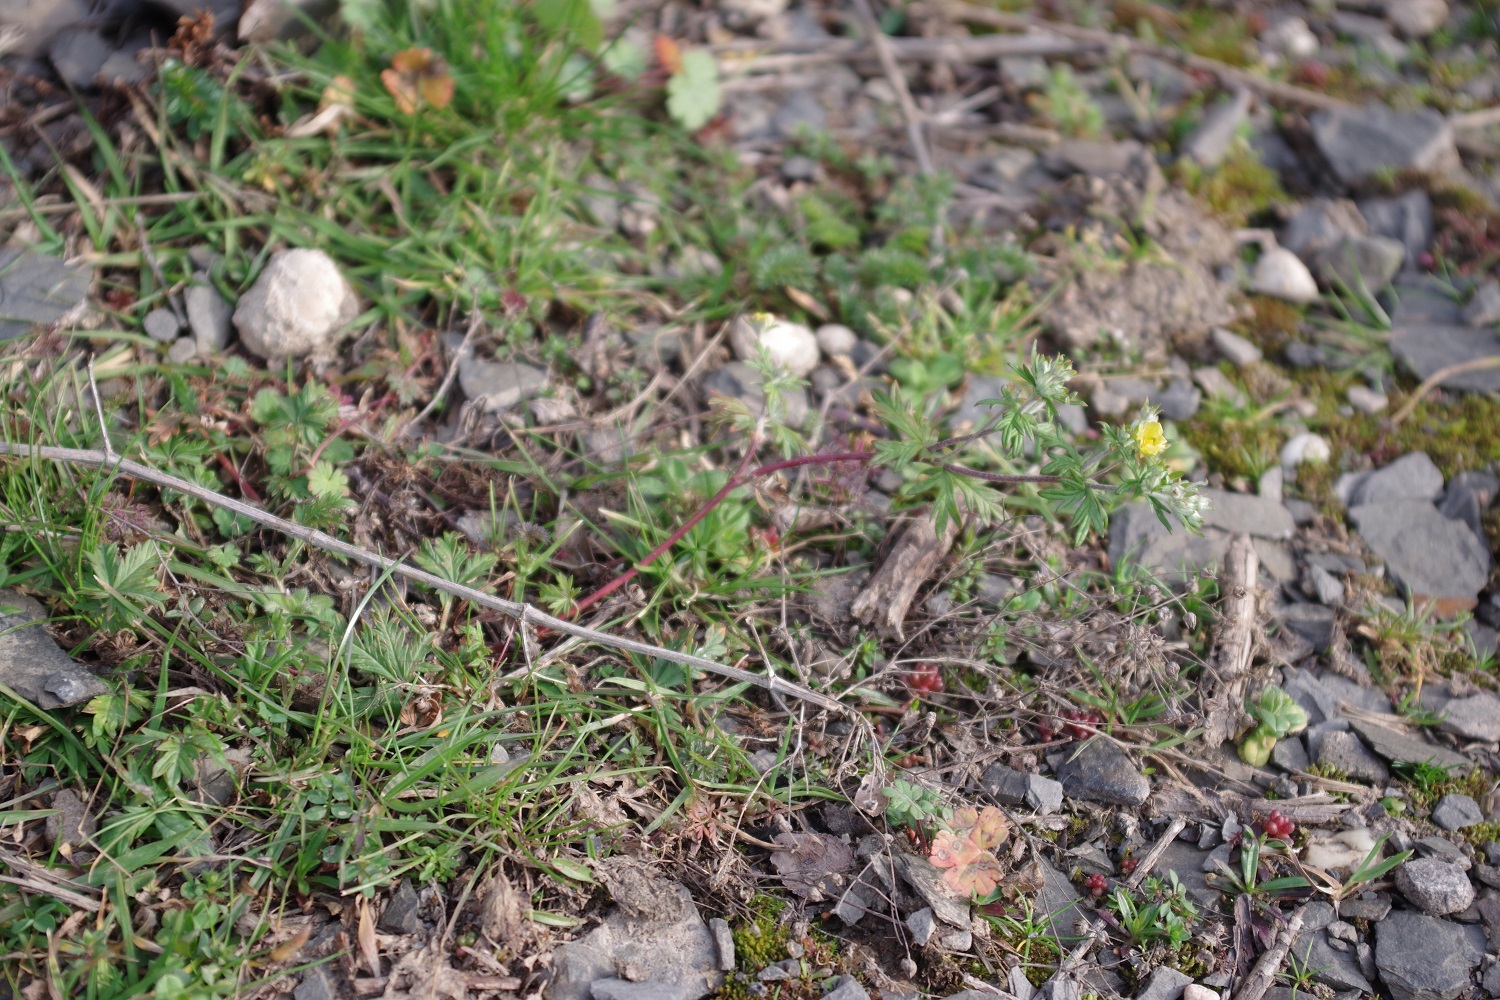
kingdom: Plantae
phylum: Tracheophyta
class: Magnoliopsida
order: Rosales
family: Rosaceae
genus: Potentilla
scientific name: Potentilla argentea
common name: Hoary cinquefoil
